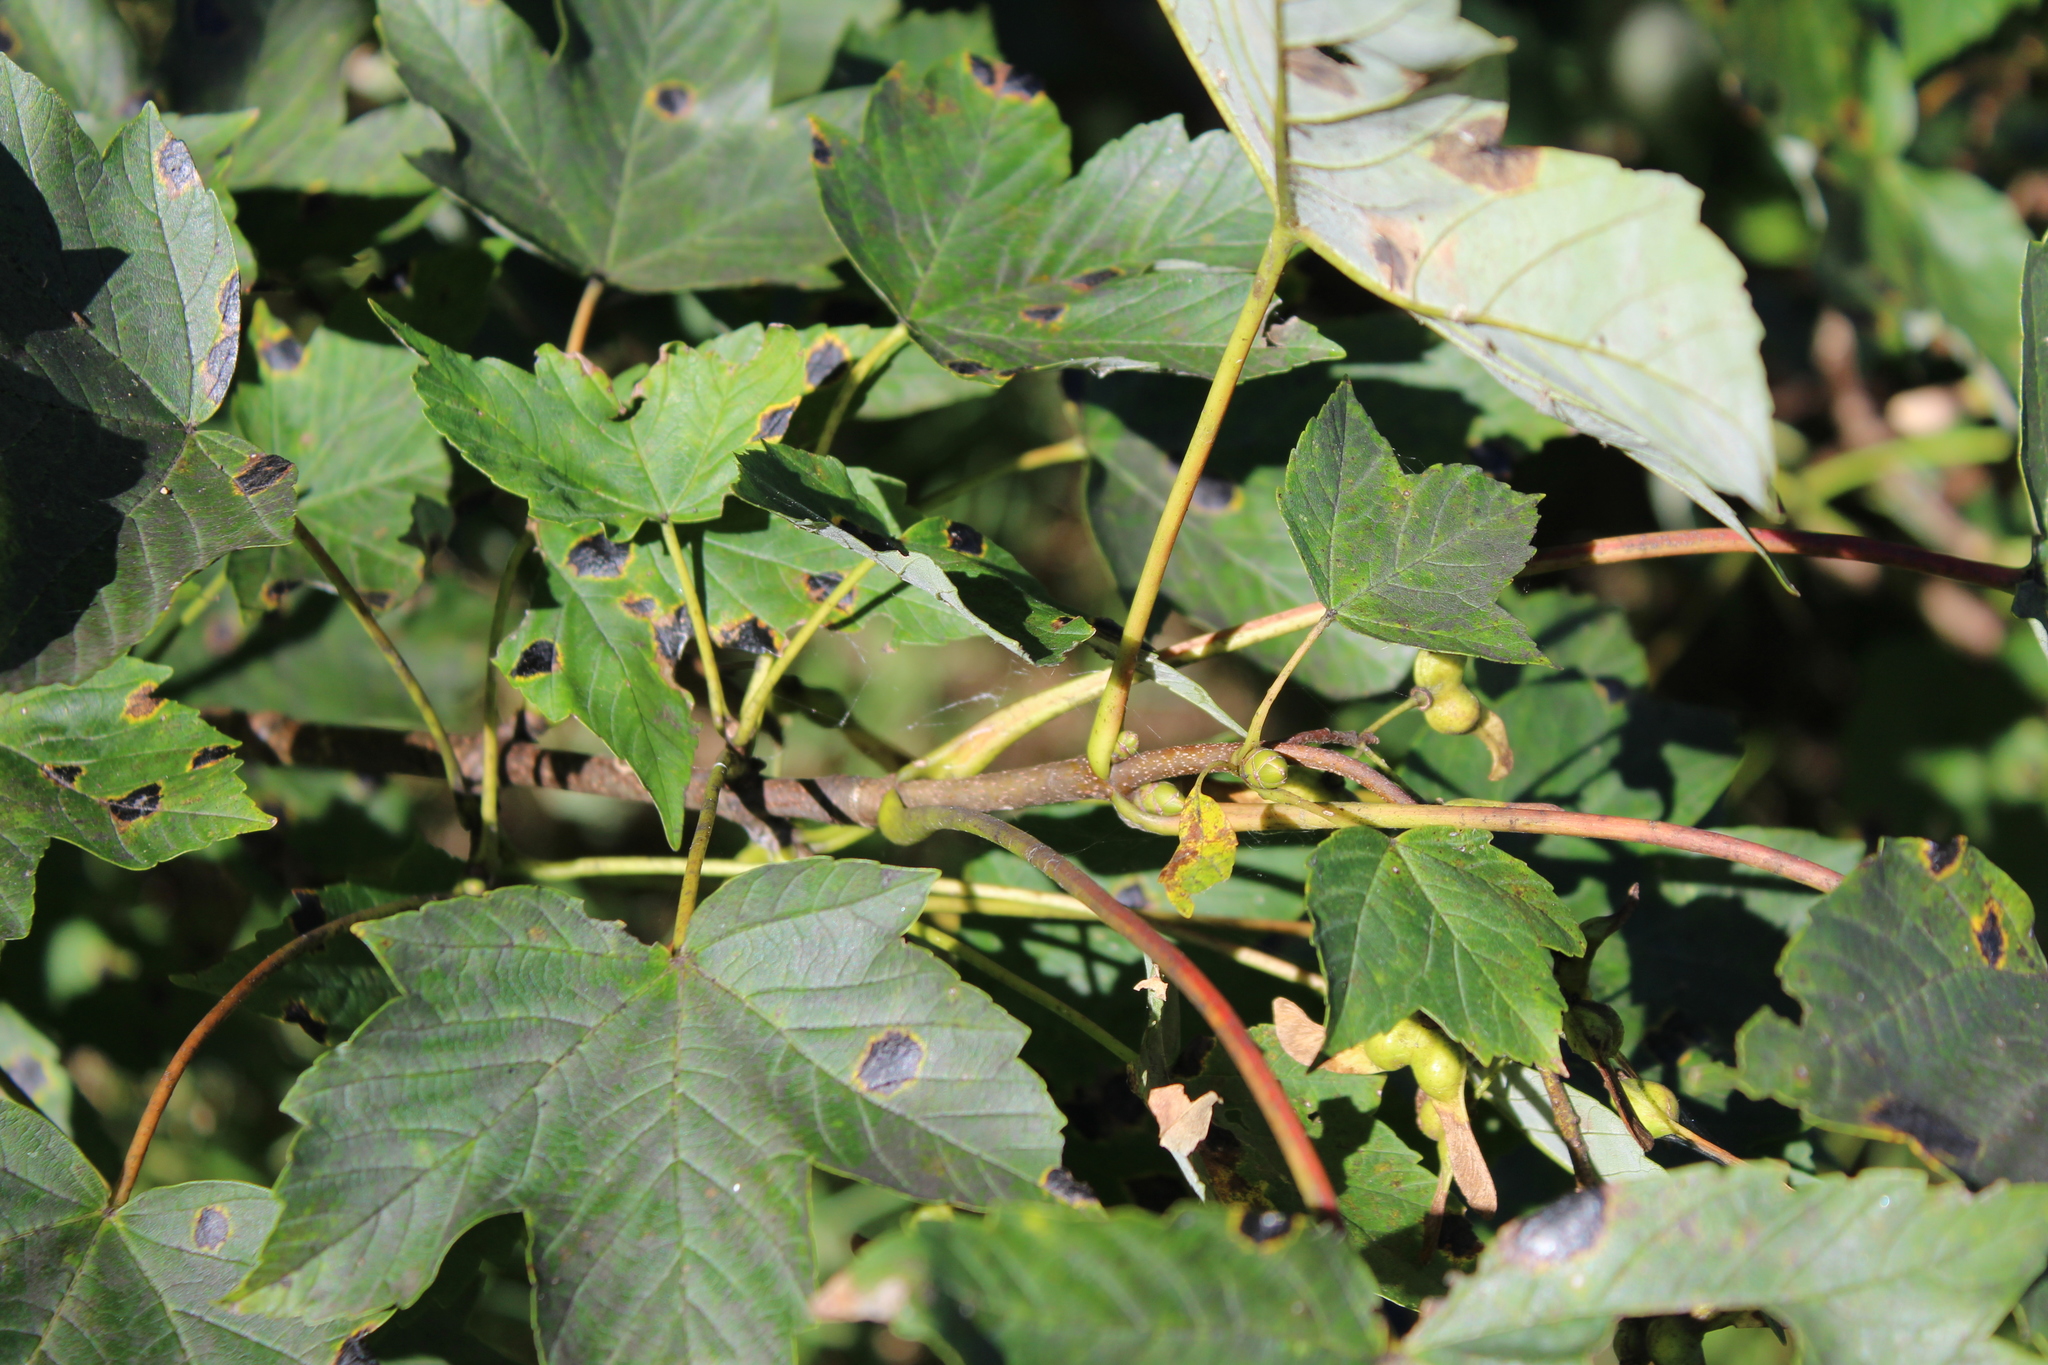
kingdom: Fungi
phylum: Ascomycota
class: Leotiomycetes
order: Rhytismatales
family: Rhytismataceae
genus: Rhytisma
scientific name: Rhytisma acerinum
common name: European tar spot
